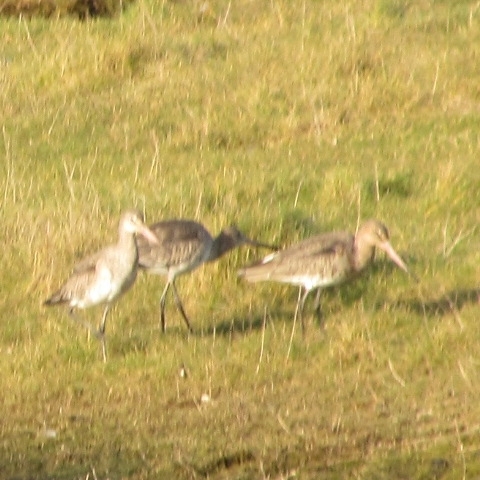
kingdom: Animalia
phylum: Chordata
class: Aves
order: Charadriiformes
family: Scolopacidae
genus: Limosa
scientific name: Limosa limosa
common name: Black-tailed godwit
